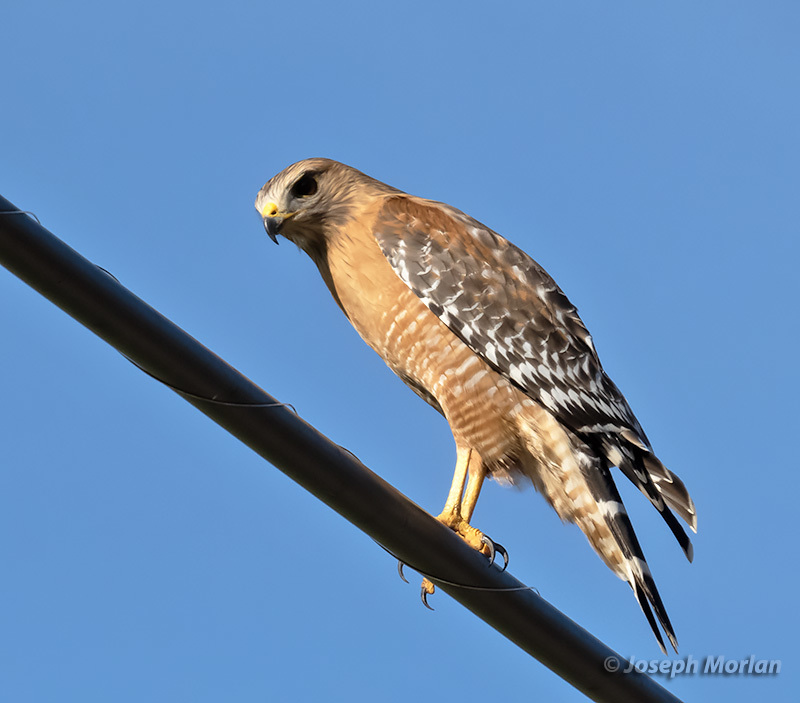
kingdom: Animalia
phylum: Chordata
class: Aves
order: Accipitriformes
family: Accipitridae
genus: Buteo
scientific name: Buteo lineatus
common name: Red-shouldered hawk
